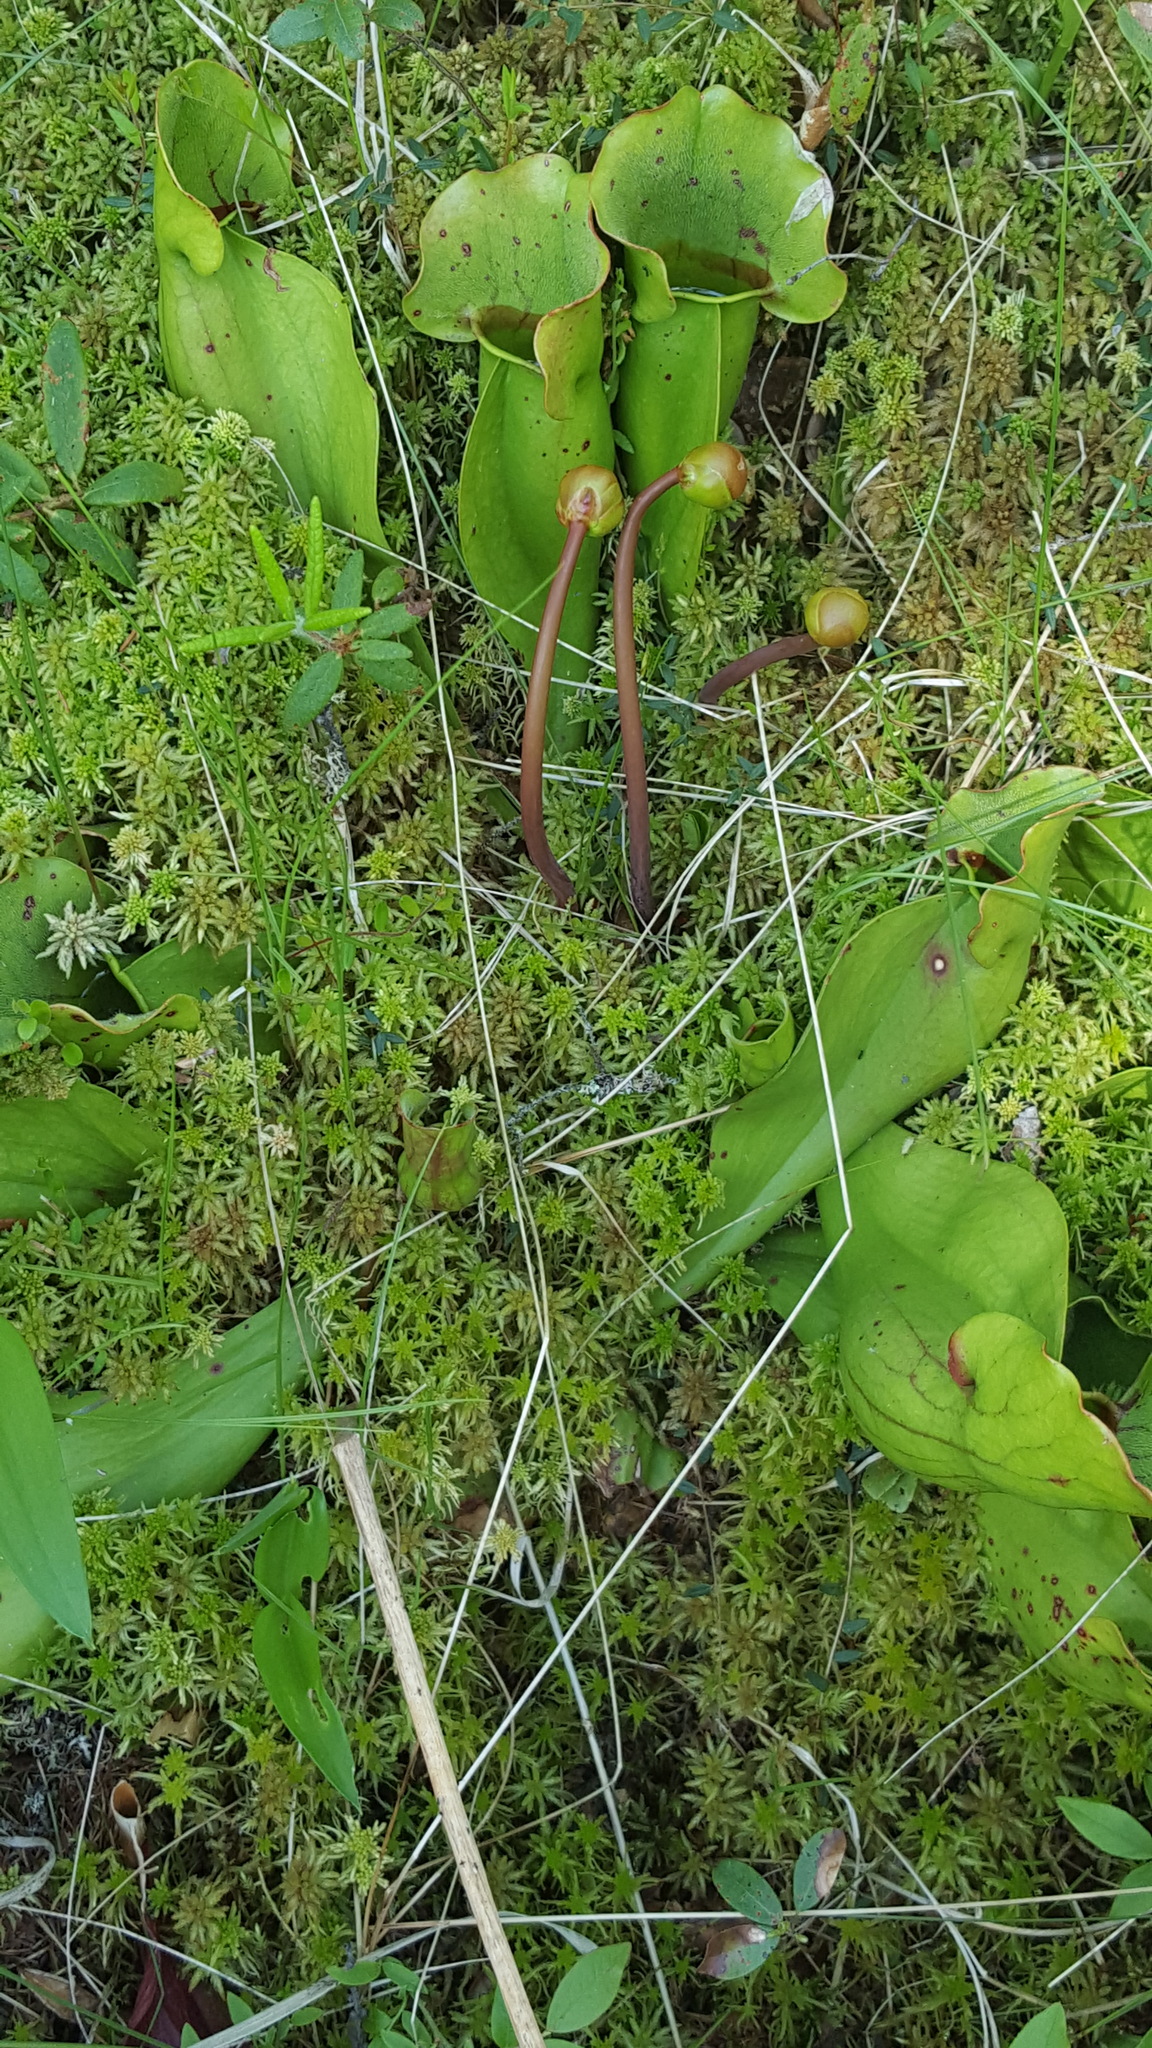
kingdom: Plantae
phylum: Tracheophyta
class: Magnoliopsida
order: Ericales
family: Sarraceniaceae
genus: Sarracenia
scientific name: Sarracenia purpurea
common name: Pitcherplant
